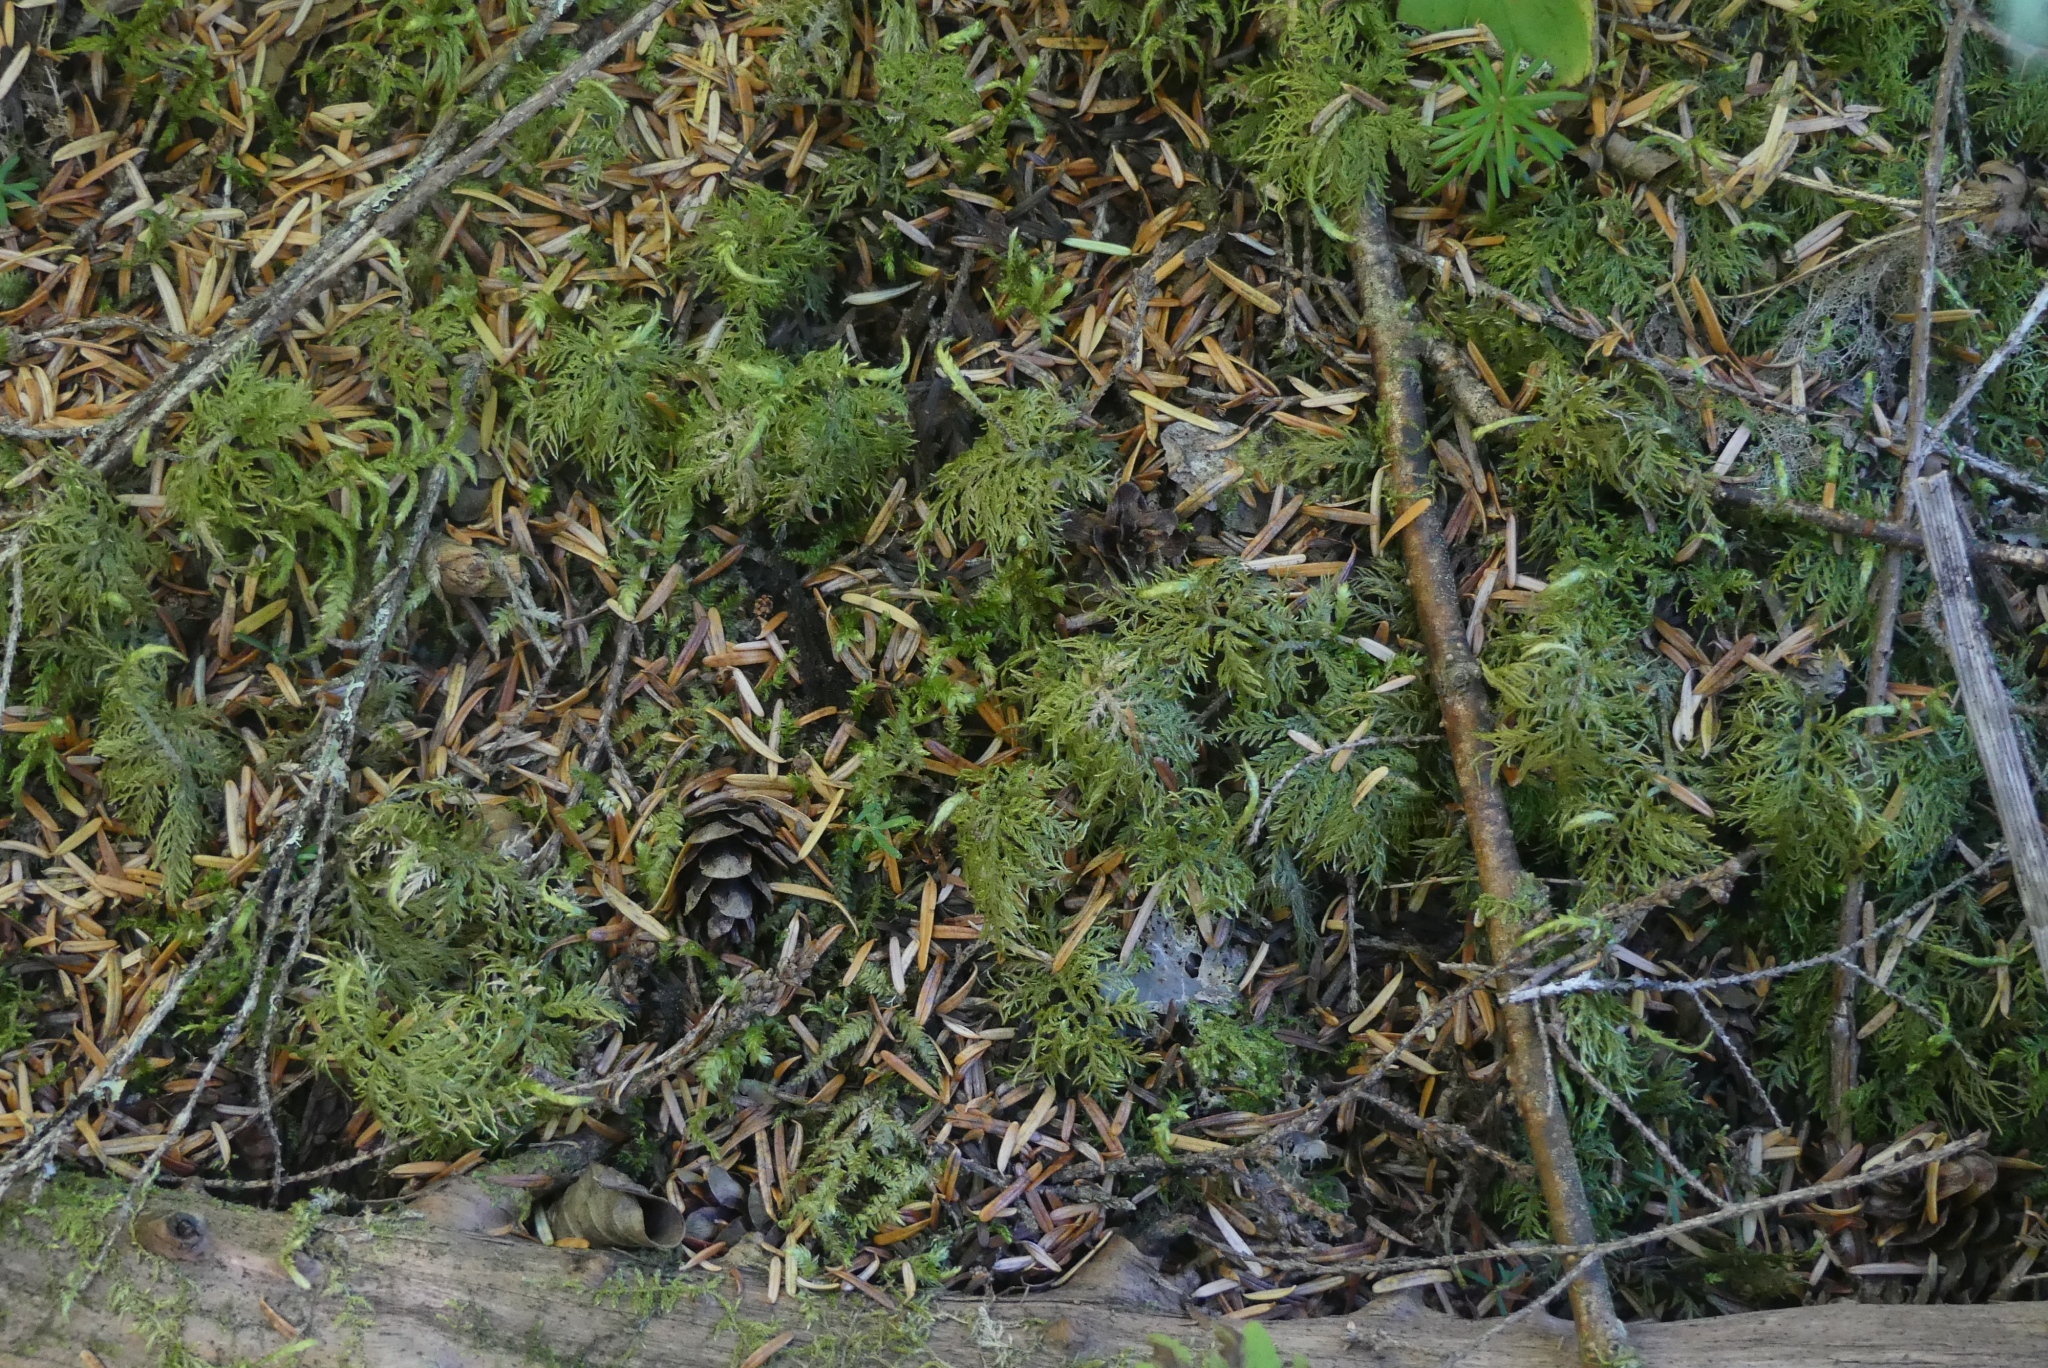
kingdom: Plantae
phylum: Bryophyta
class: Bryopsida
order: Hypnales
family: Hylocomiaceae
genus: Hylocomium
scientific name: Hylocomium splendens
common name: Stairstep moss
